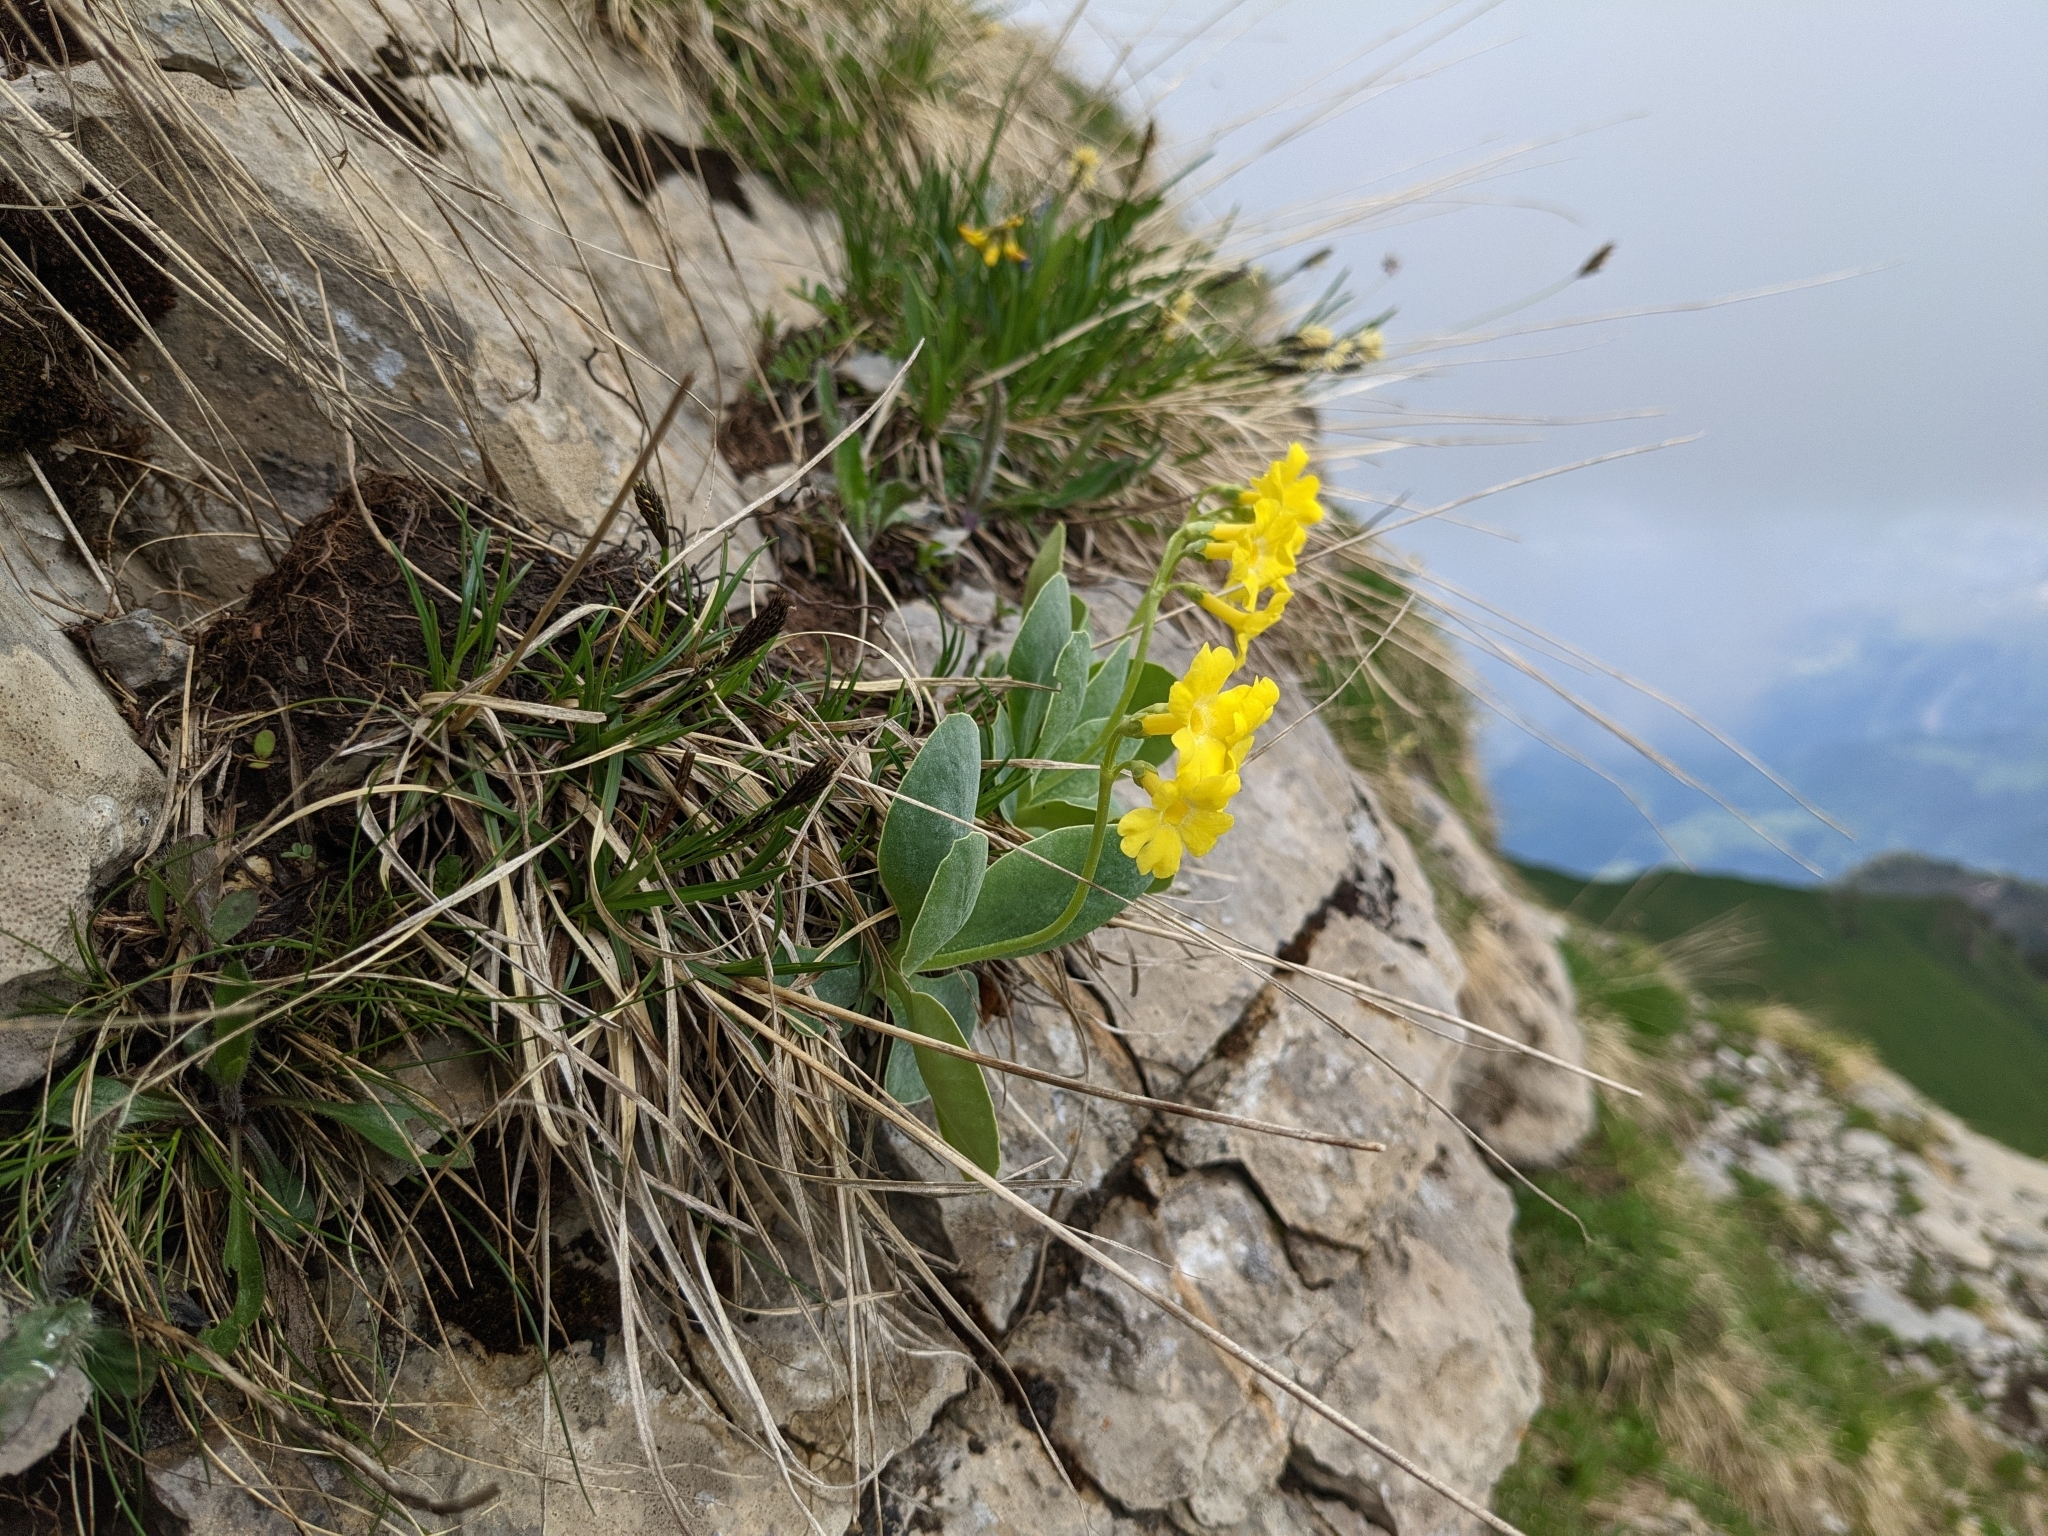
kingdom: Plantae
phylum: Tracheophyta
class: Magnoliopsida
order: Ericales
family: Primulaceae
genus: Primula
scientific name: Primula auricula
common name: Auricula
